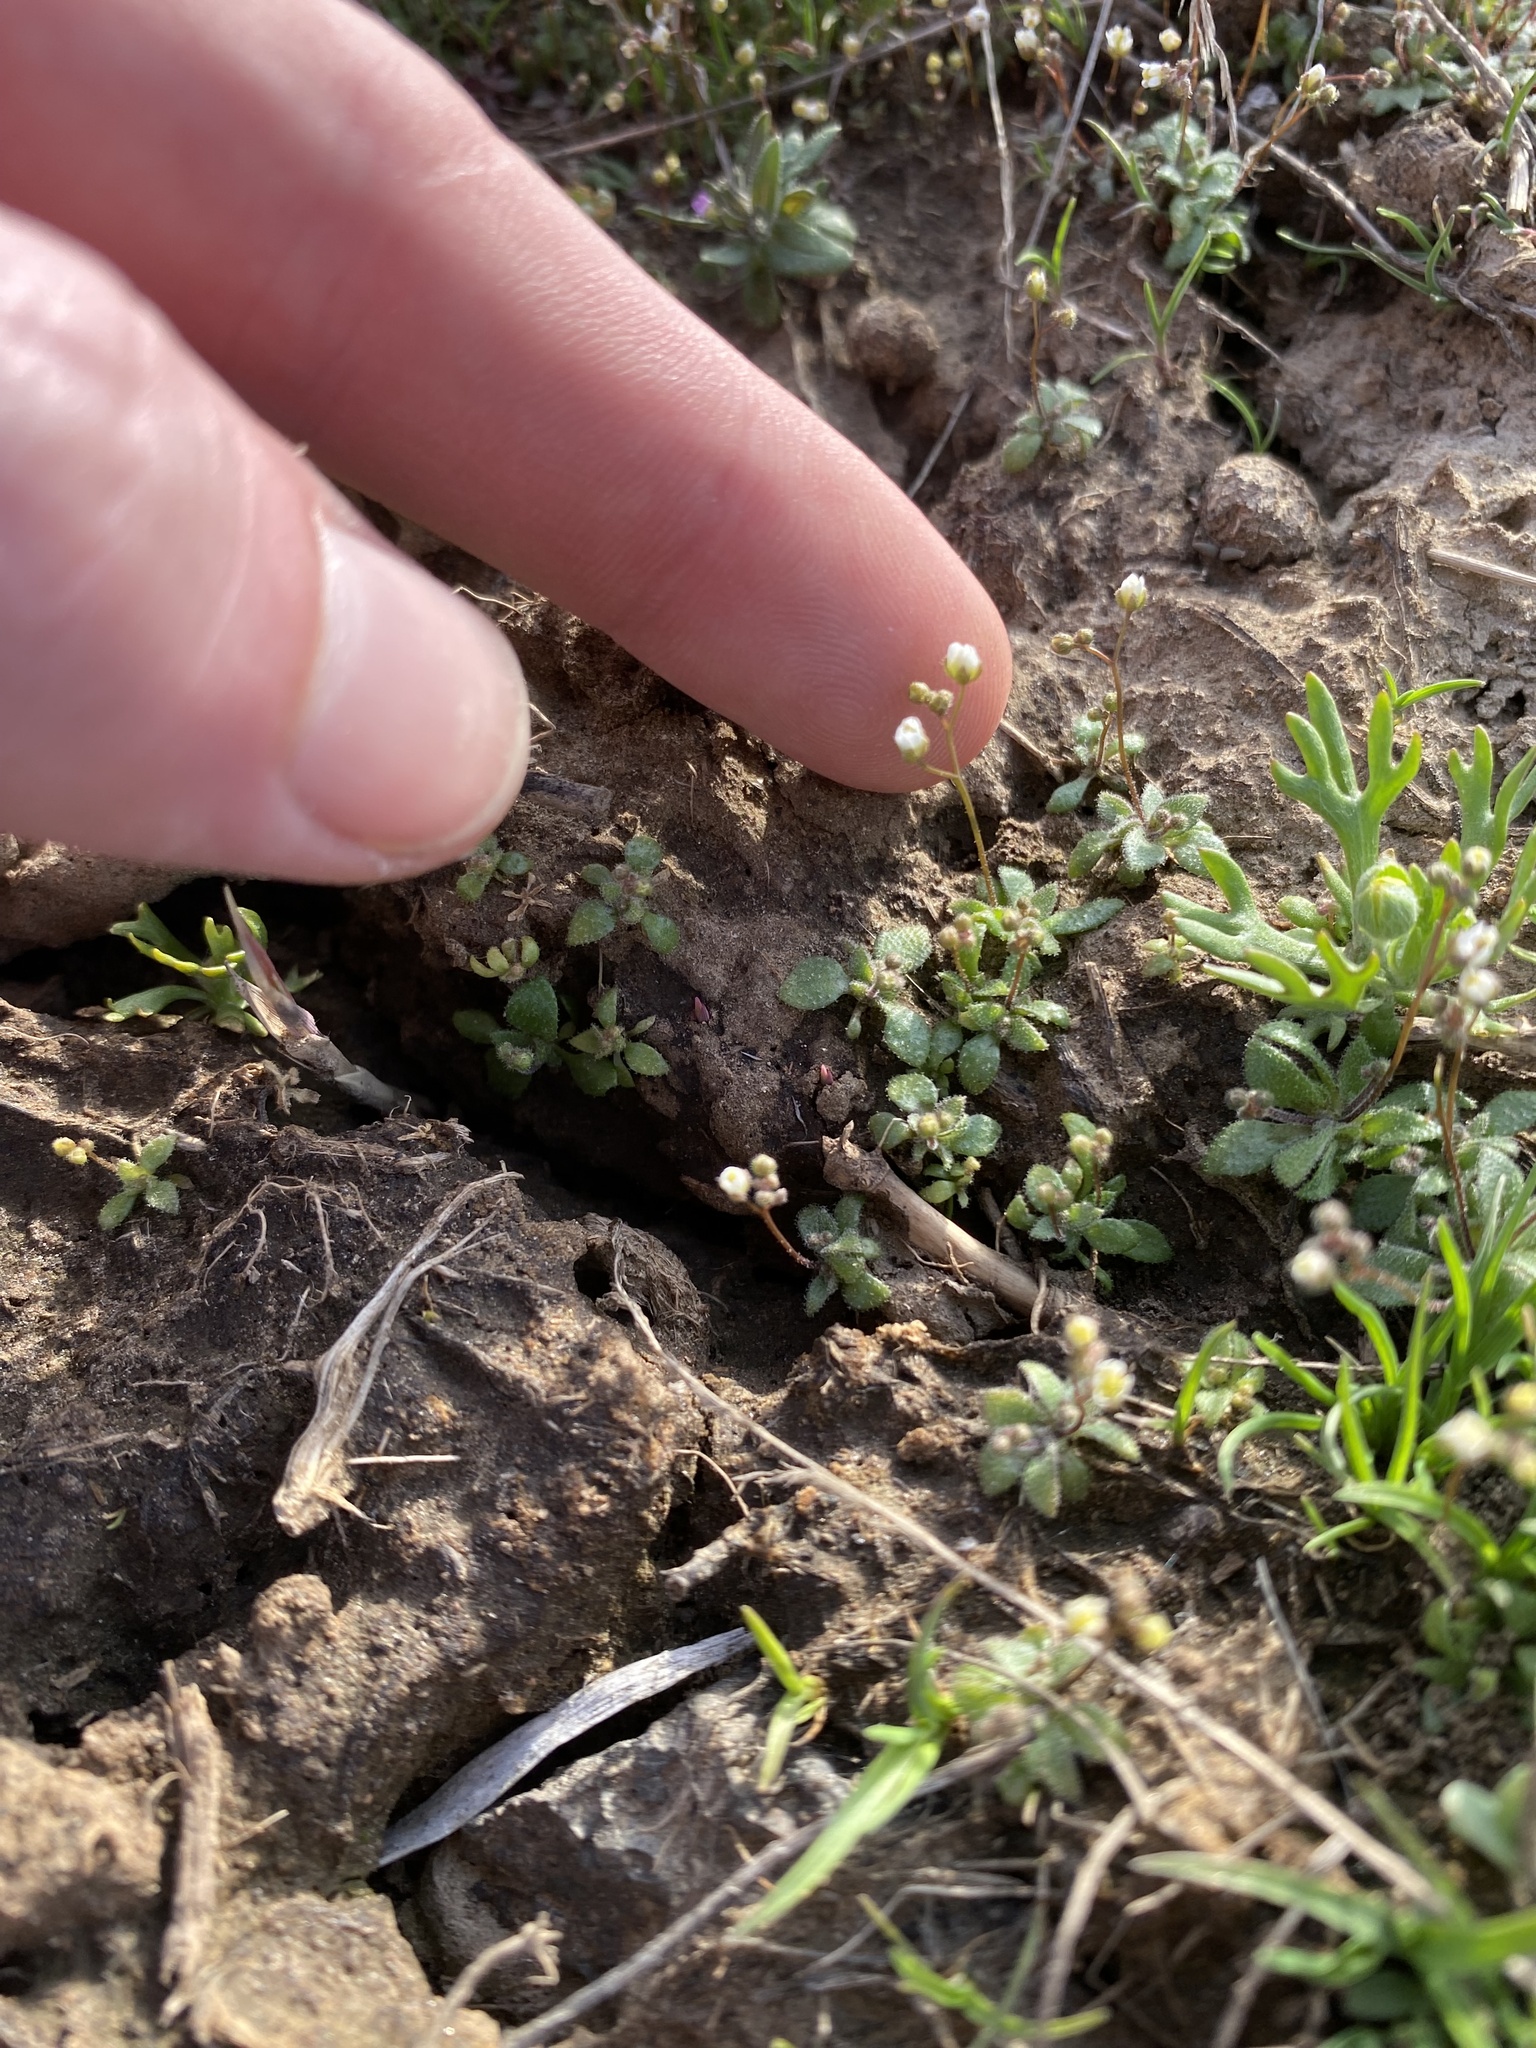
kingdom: Plantae
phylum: Tracheophyta
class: Magnoliopsida
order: Brassicales
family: Brassicaceae
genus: Draba
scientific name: Draba verna
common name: Spring draba
